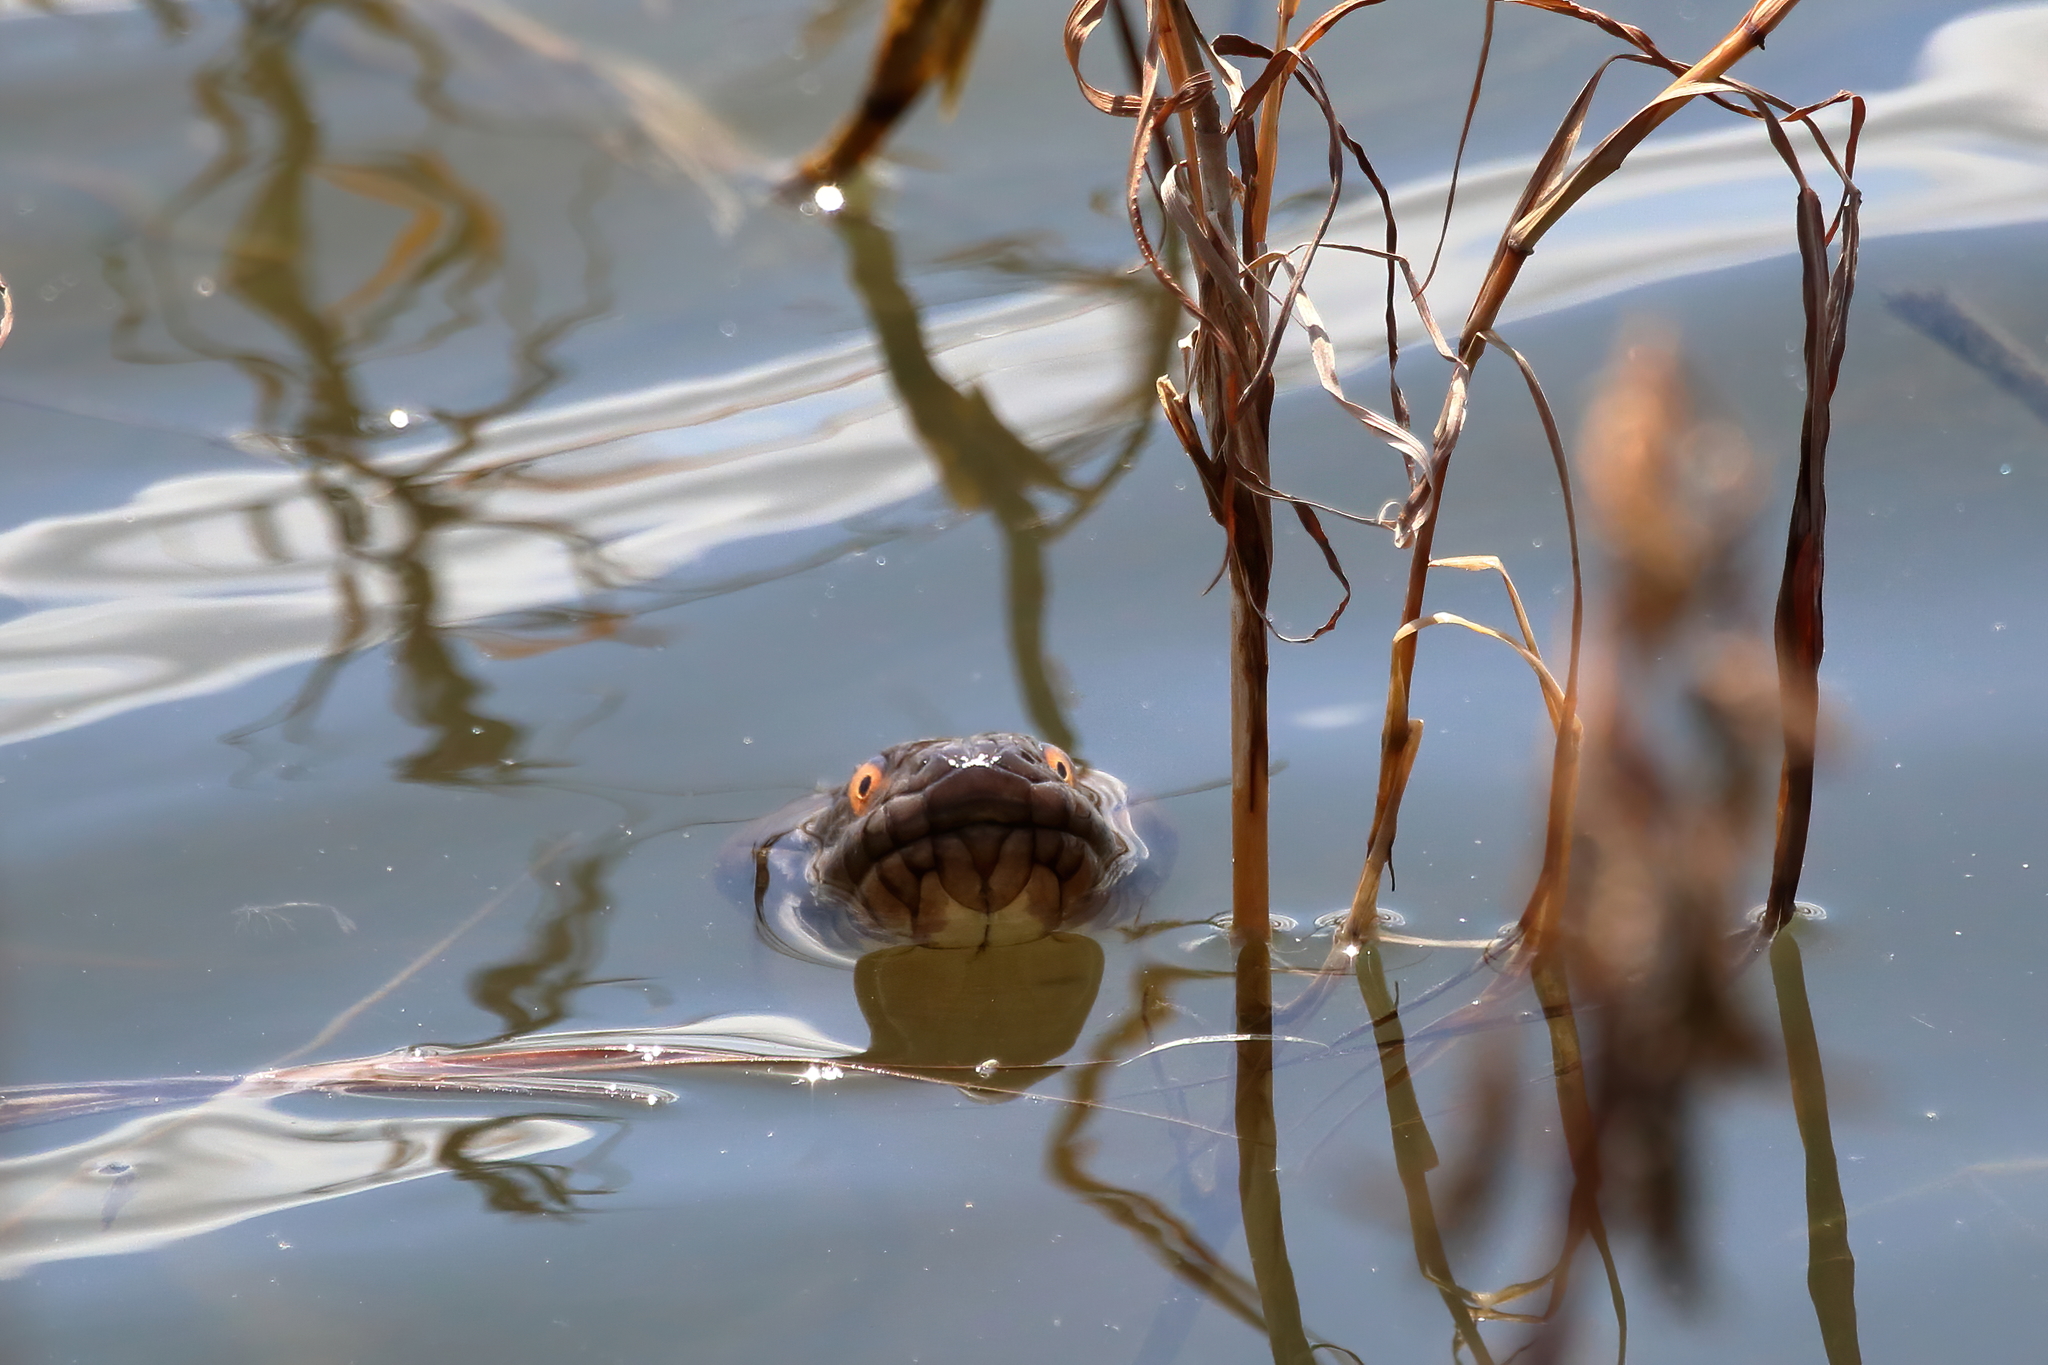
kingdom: Animalia
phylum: Chordata
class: Squamata
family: Colubridae
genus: Nerodia
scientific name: Nerodia rhombifer
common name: Diamondback water snake
